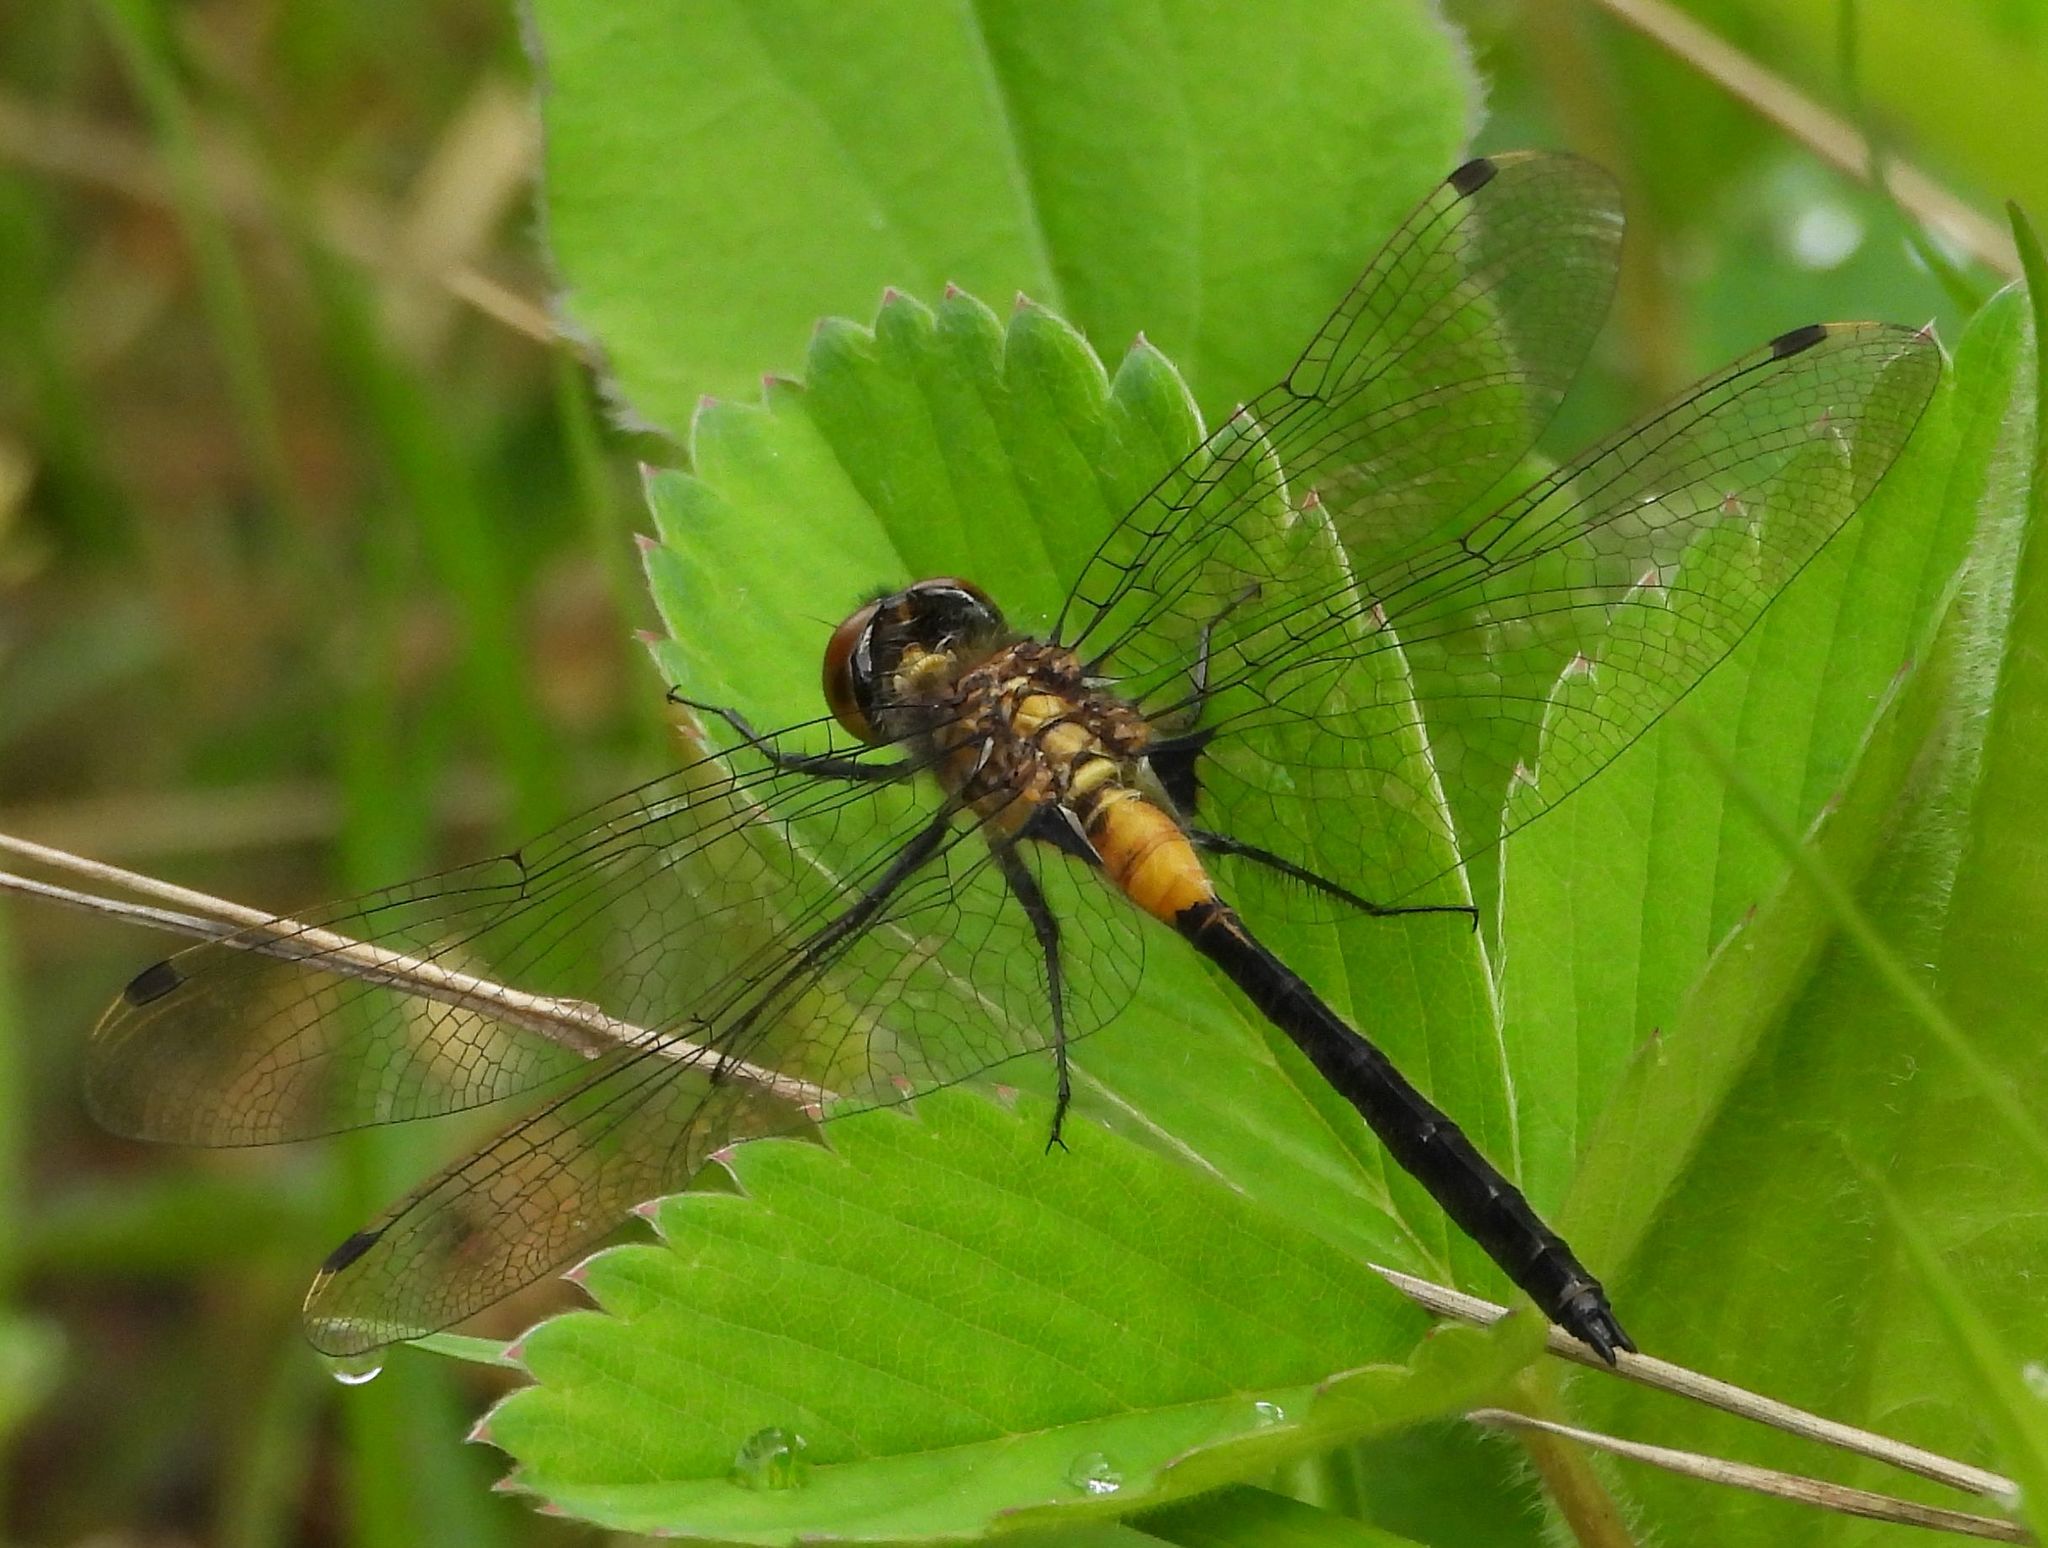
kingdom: Animalia
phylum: Arthropoda
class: Insecta
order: Odonata
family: Libellulidae
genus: Leucorrhinia
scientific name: Leucorrhinia proxima
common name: Belted whiteface
